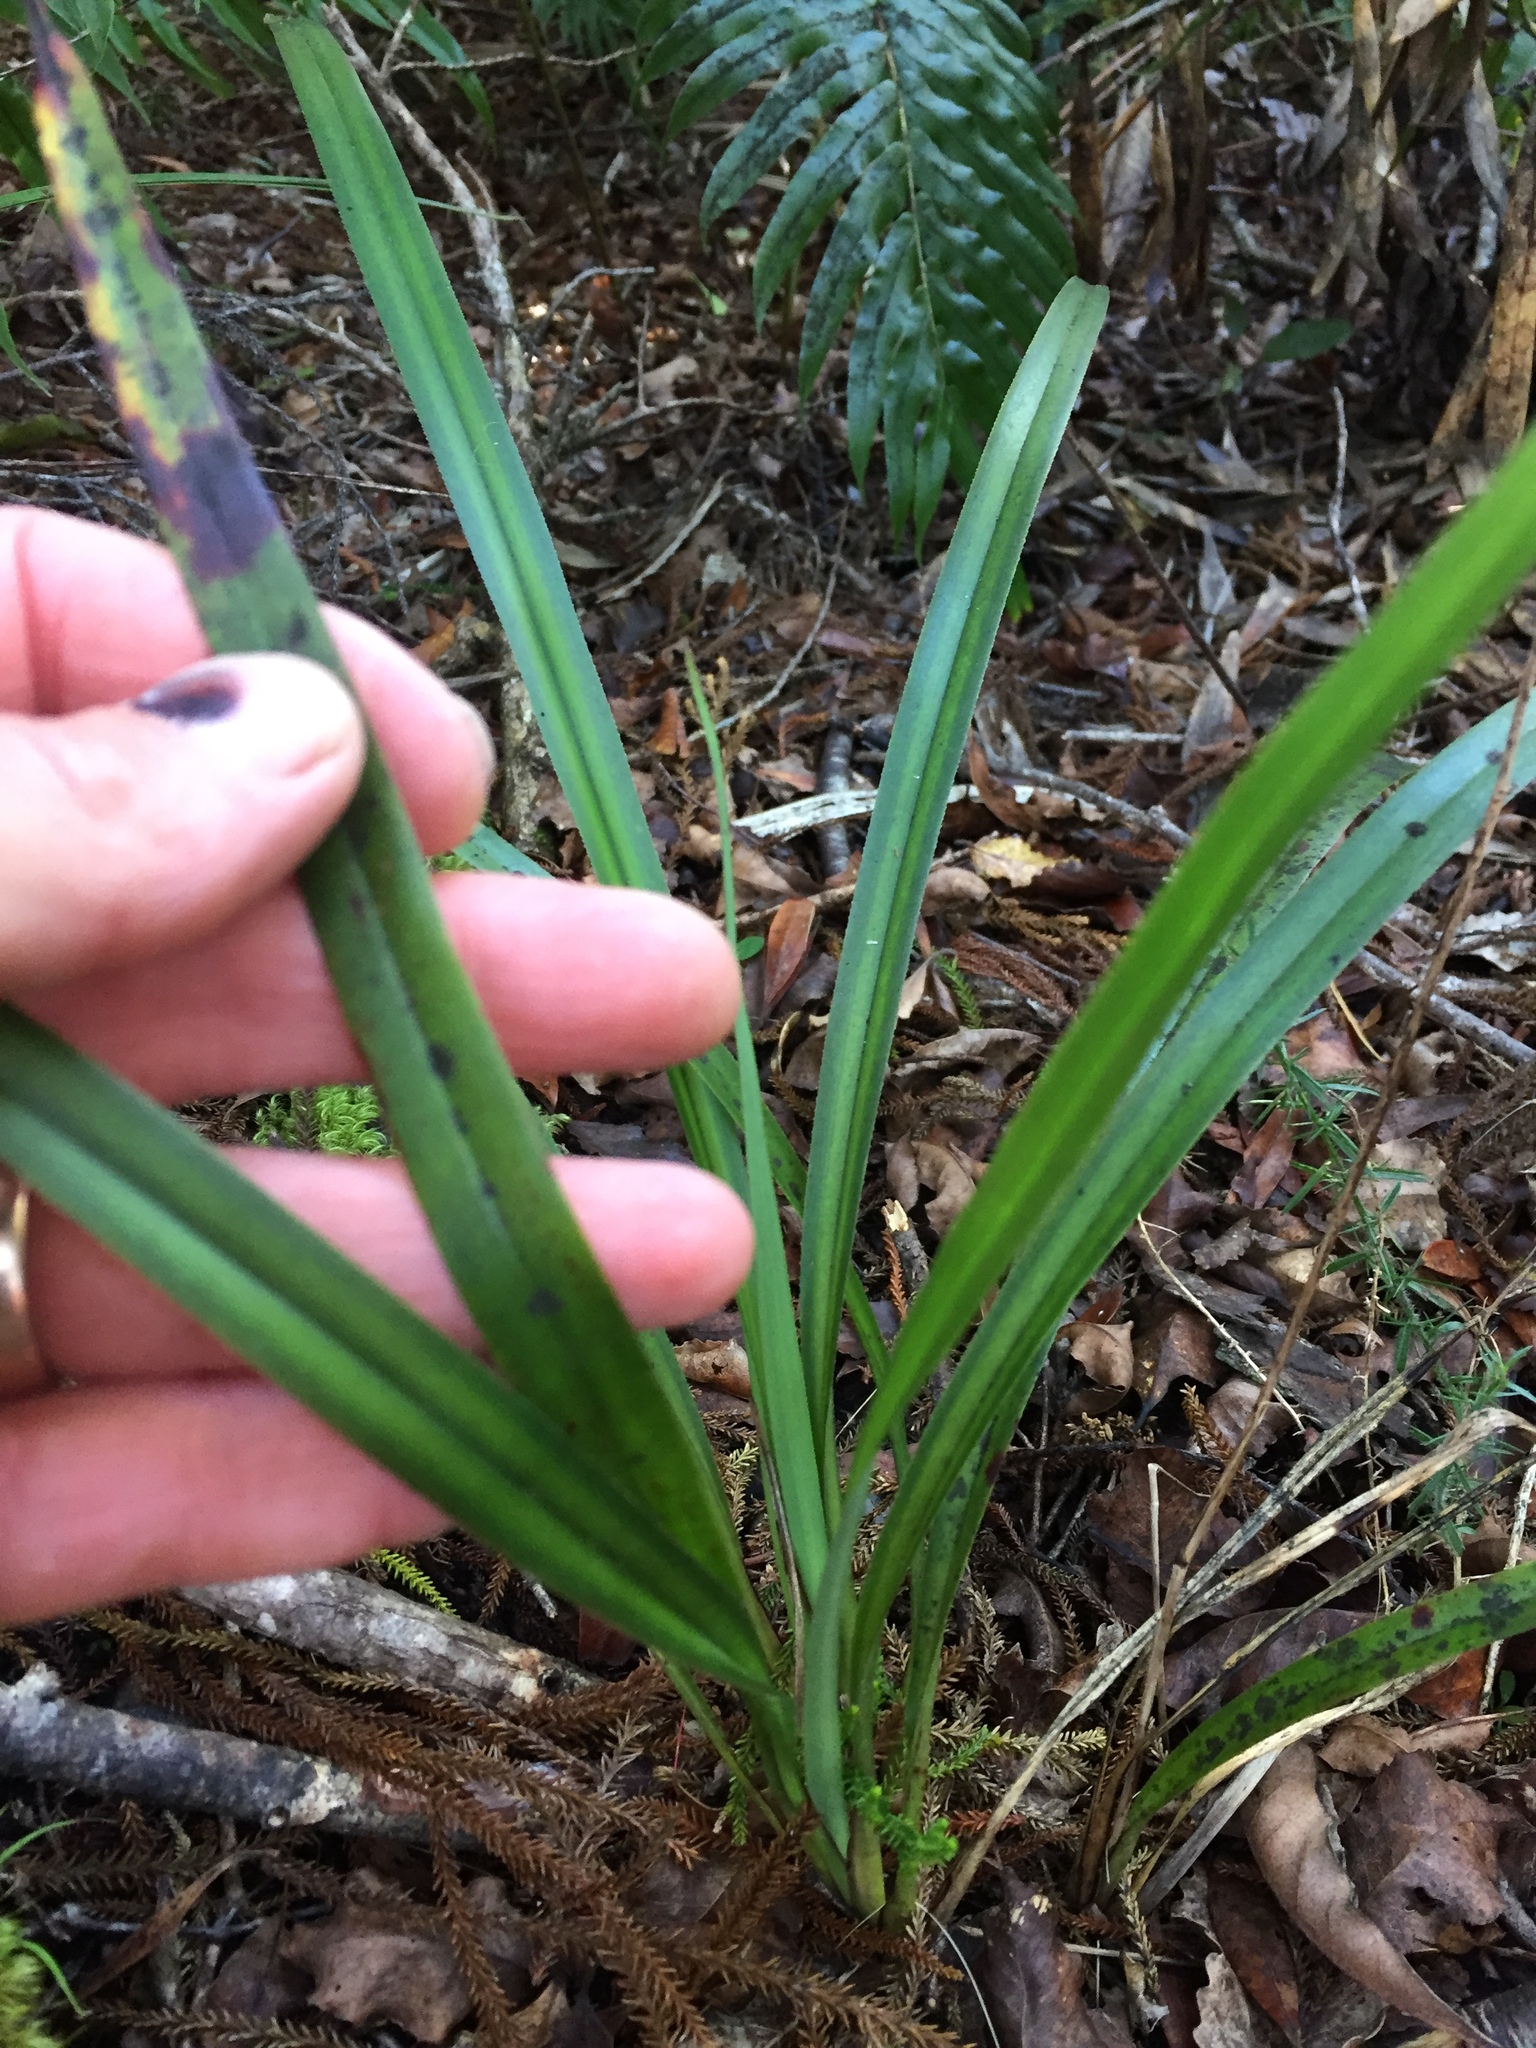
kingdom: Plantae
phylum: Tracheophyta
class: Liliopsida
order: Asparagales
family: Asphodelaceae
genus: Dianella
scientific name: Dianella nigra
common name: New zealand-blueberry
